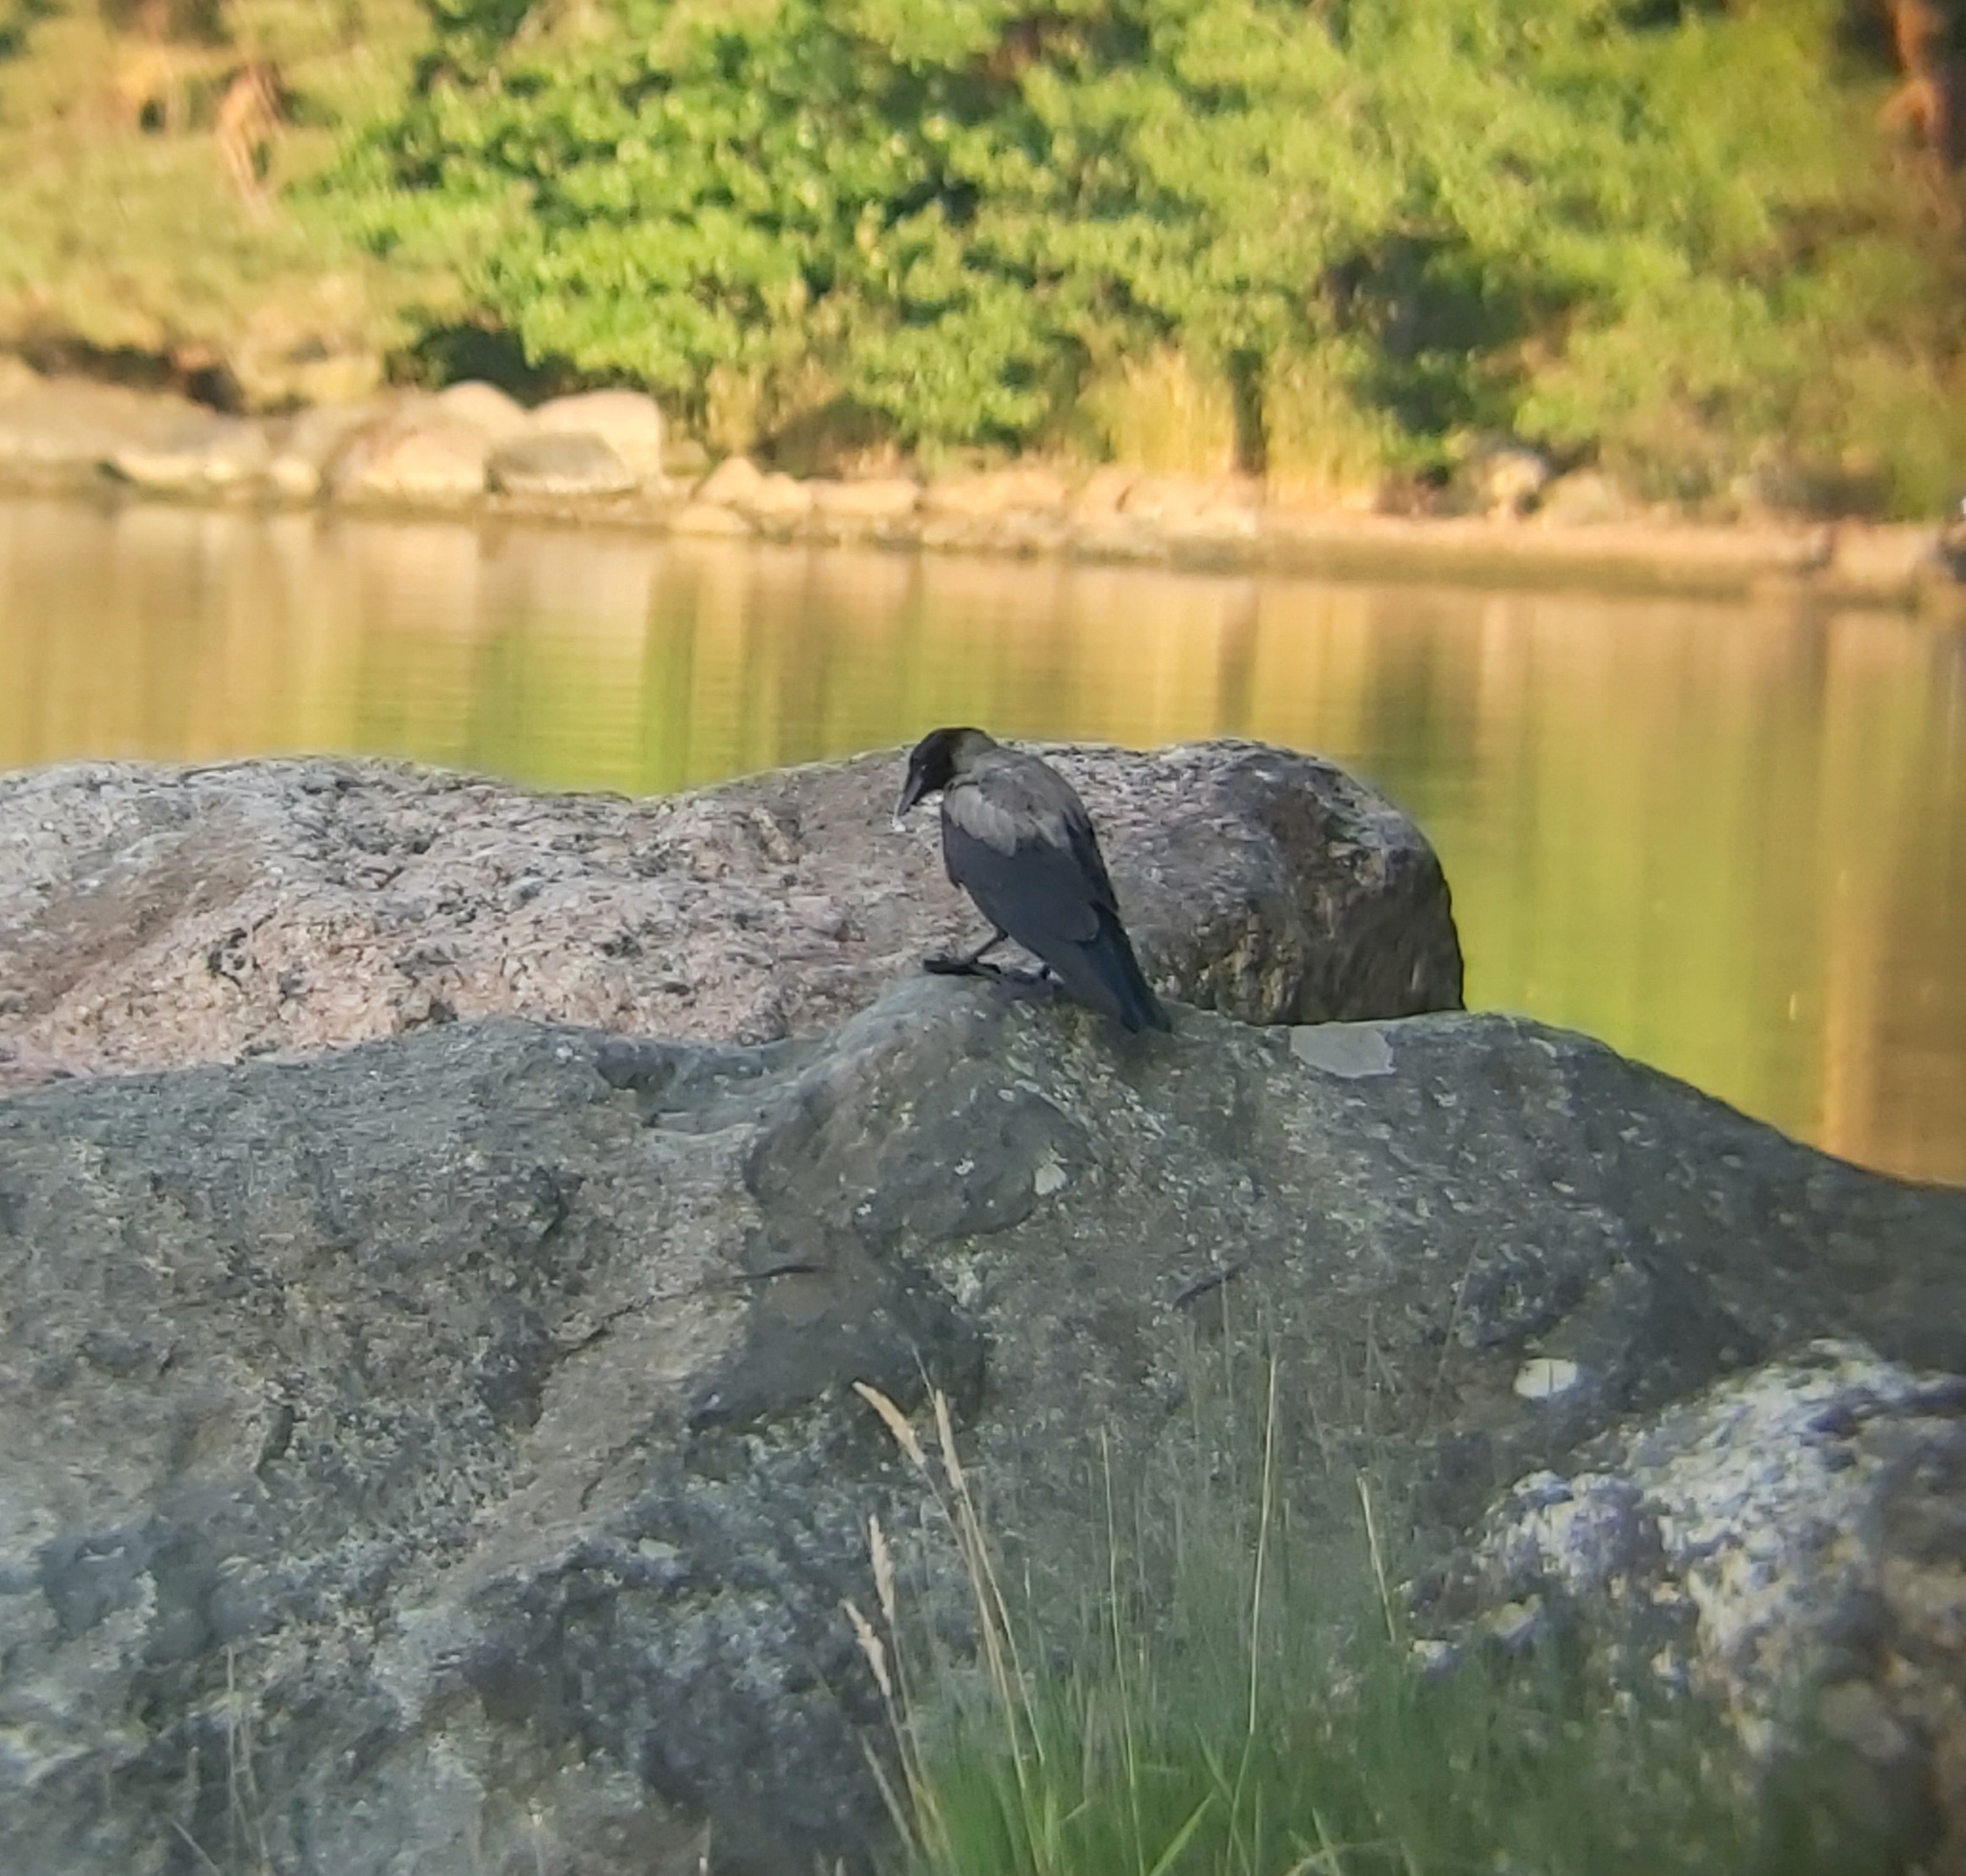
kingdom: Animalia
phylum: Chordata
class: Aves
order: Passeriformes
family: Corvidae
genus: Corvus
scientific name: Corvus cornix
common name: Hooded crow
